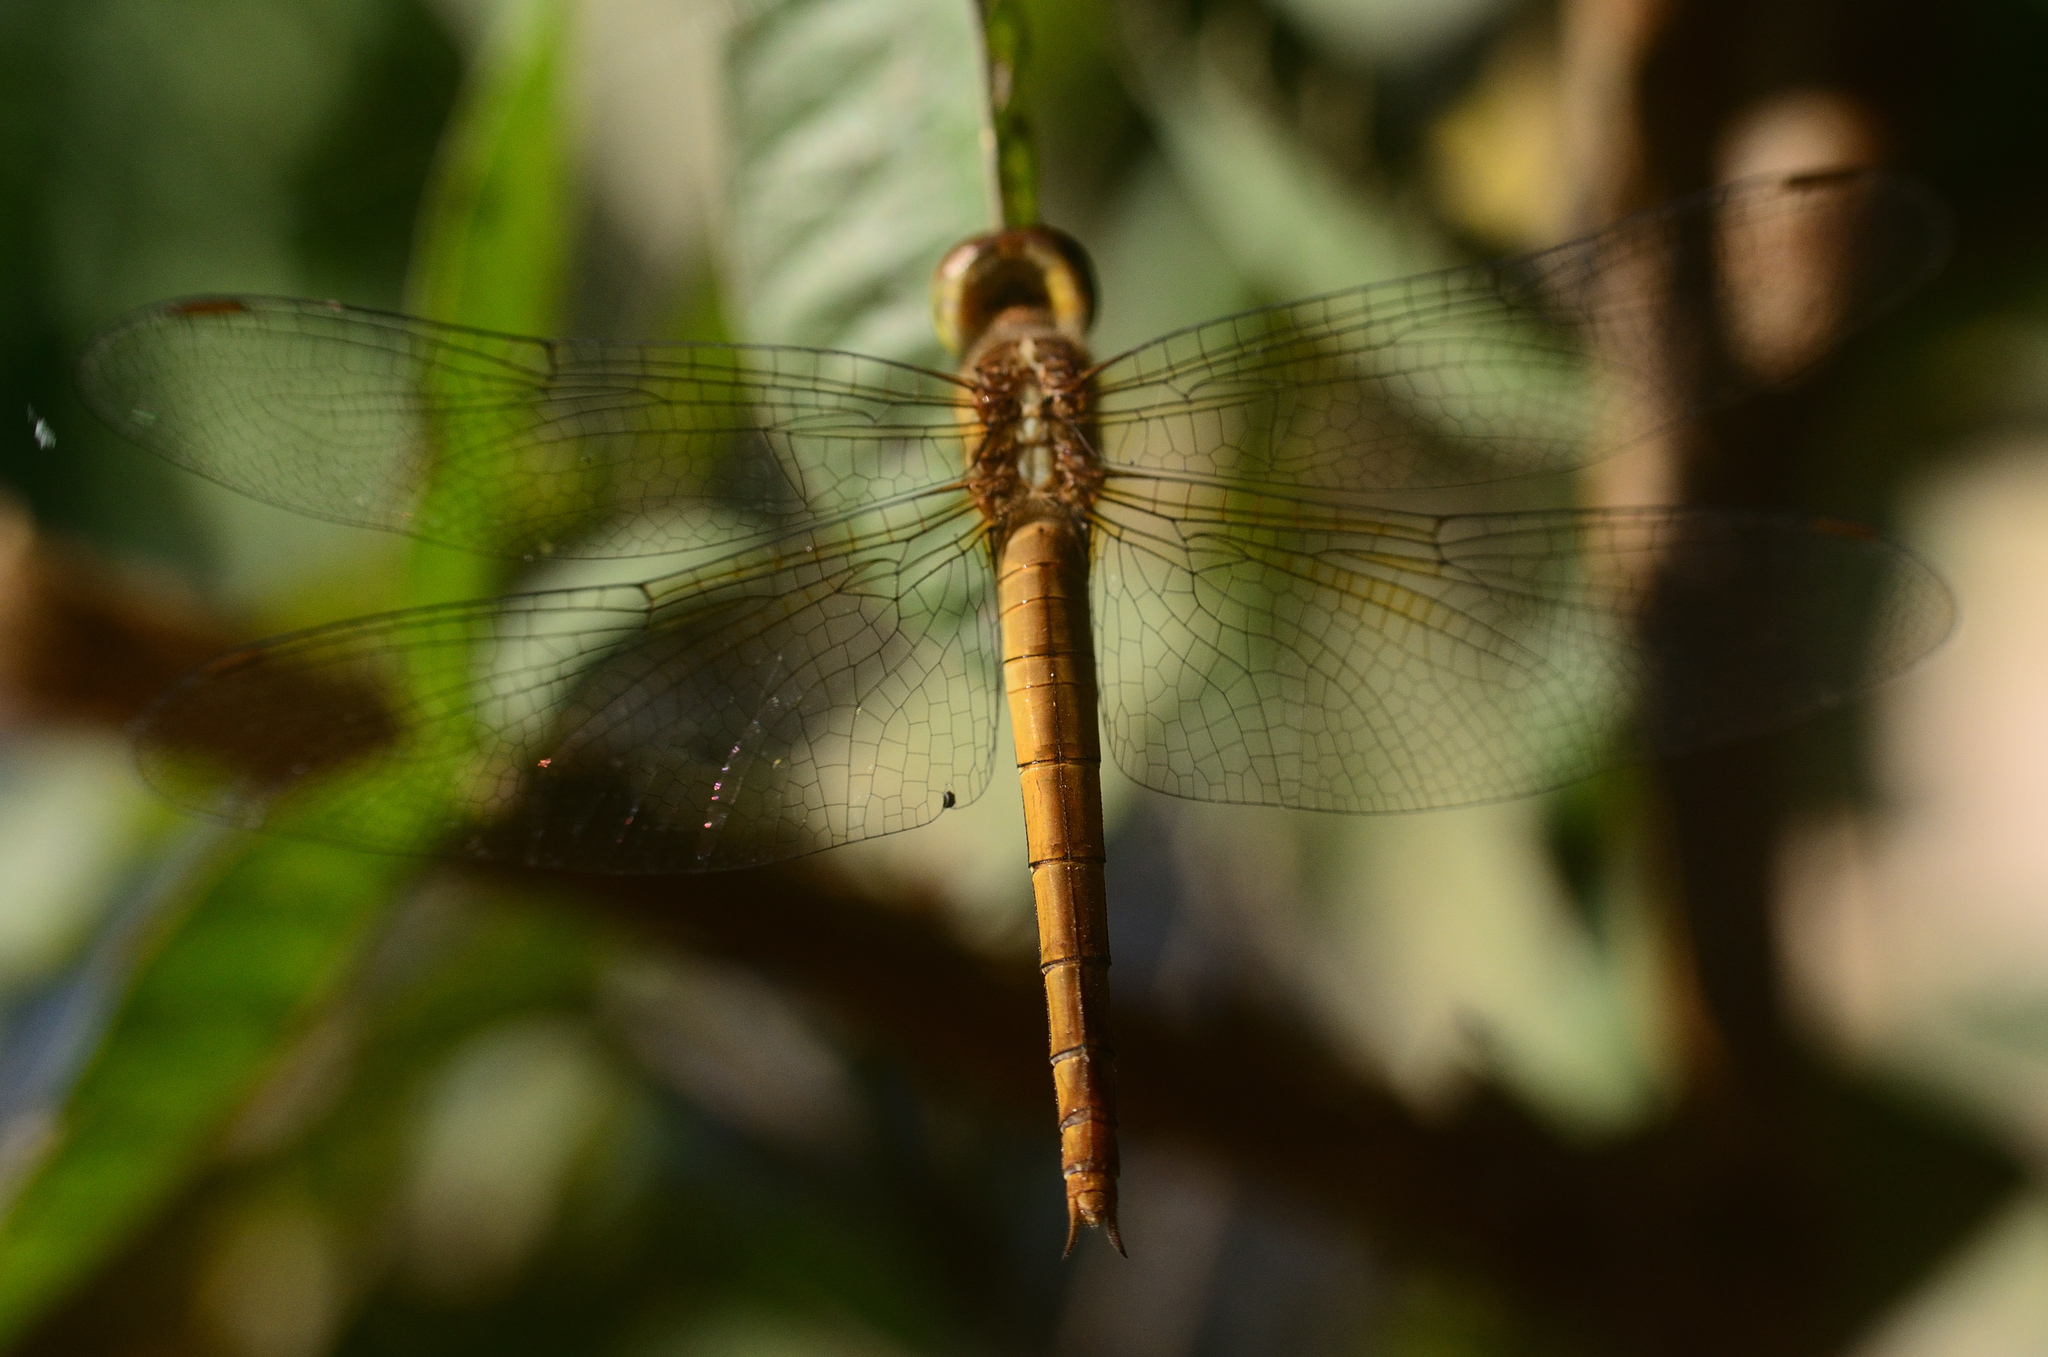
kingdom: Animalia
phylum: Arthropoda
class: Insecta
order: Odonata
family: Libellulidae
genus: Tholymis
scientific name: Tholymis tillarga
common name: Coral-tailed cloud wing
